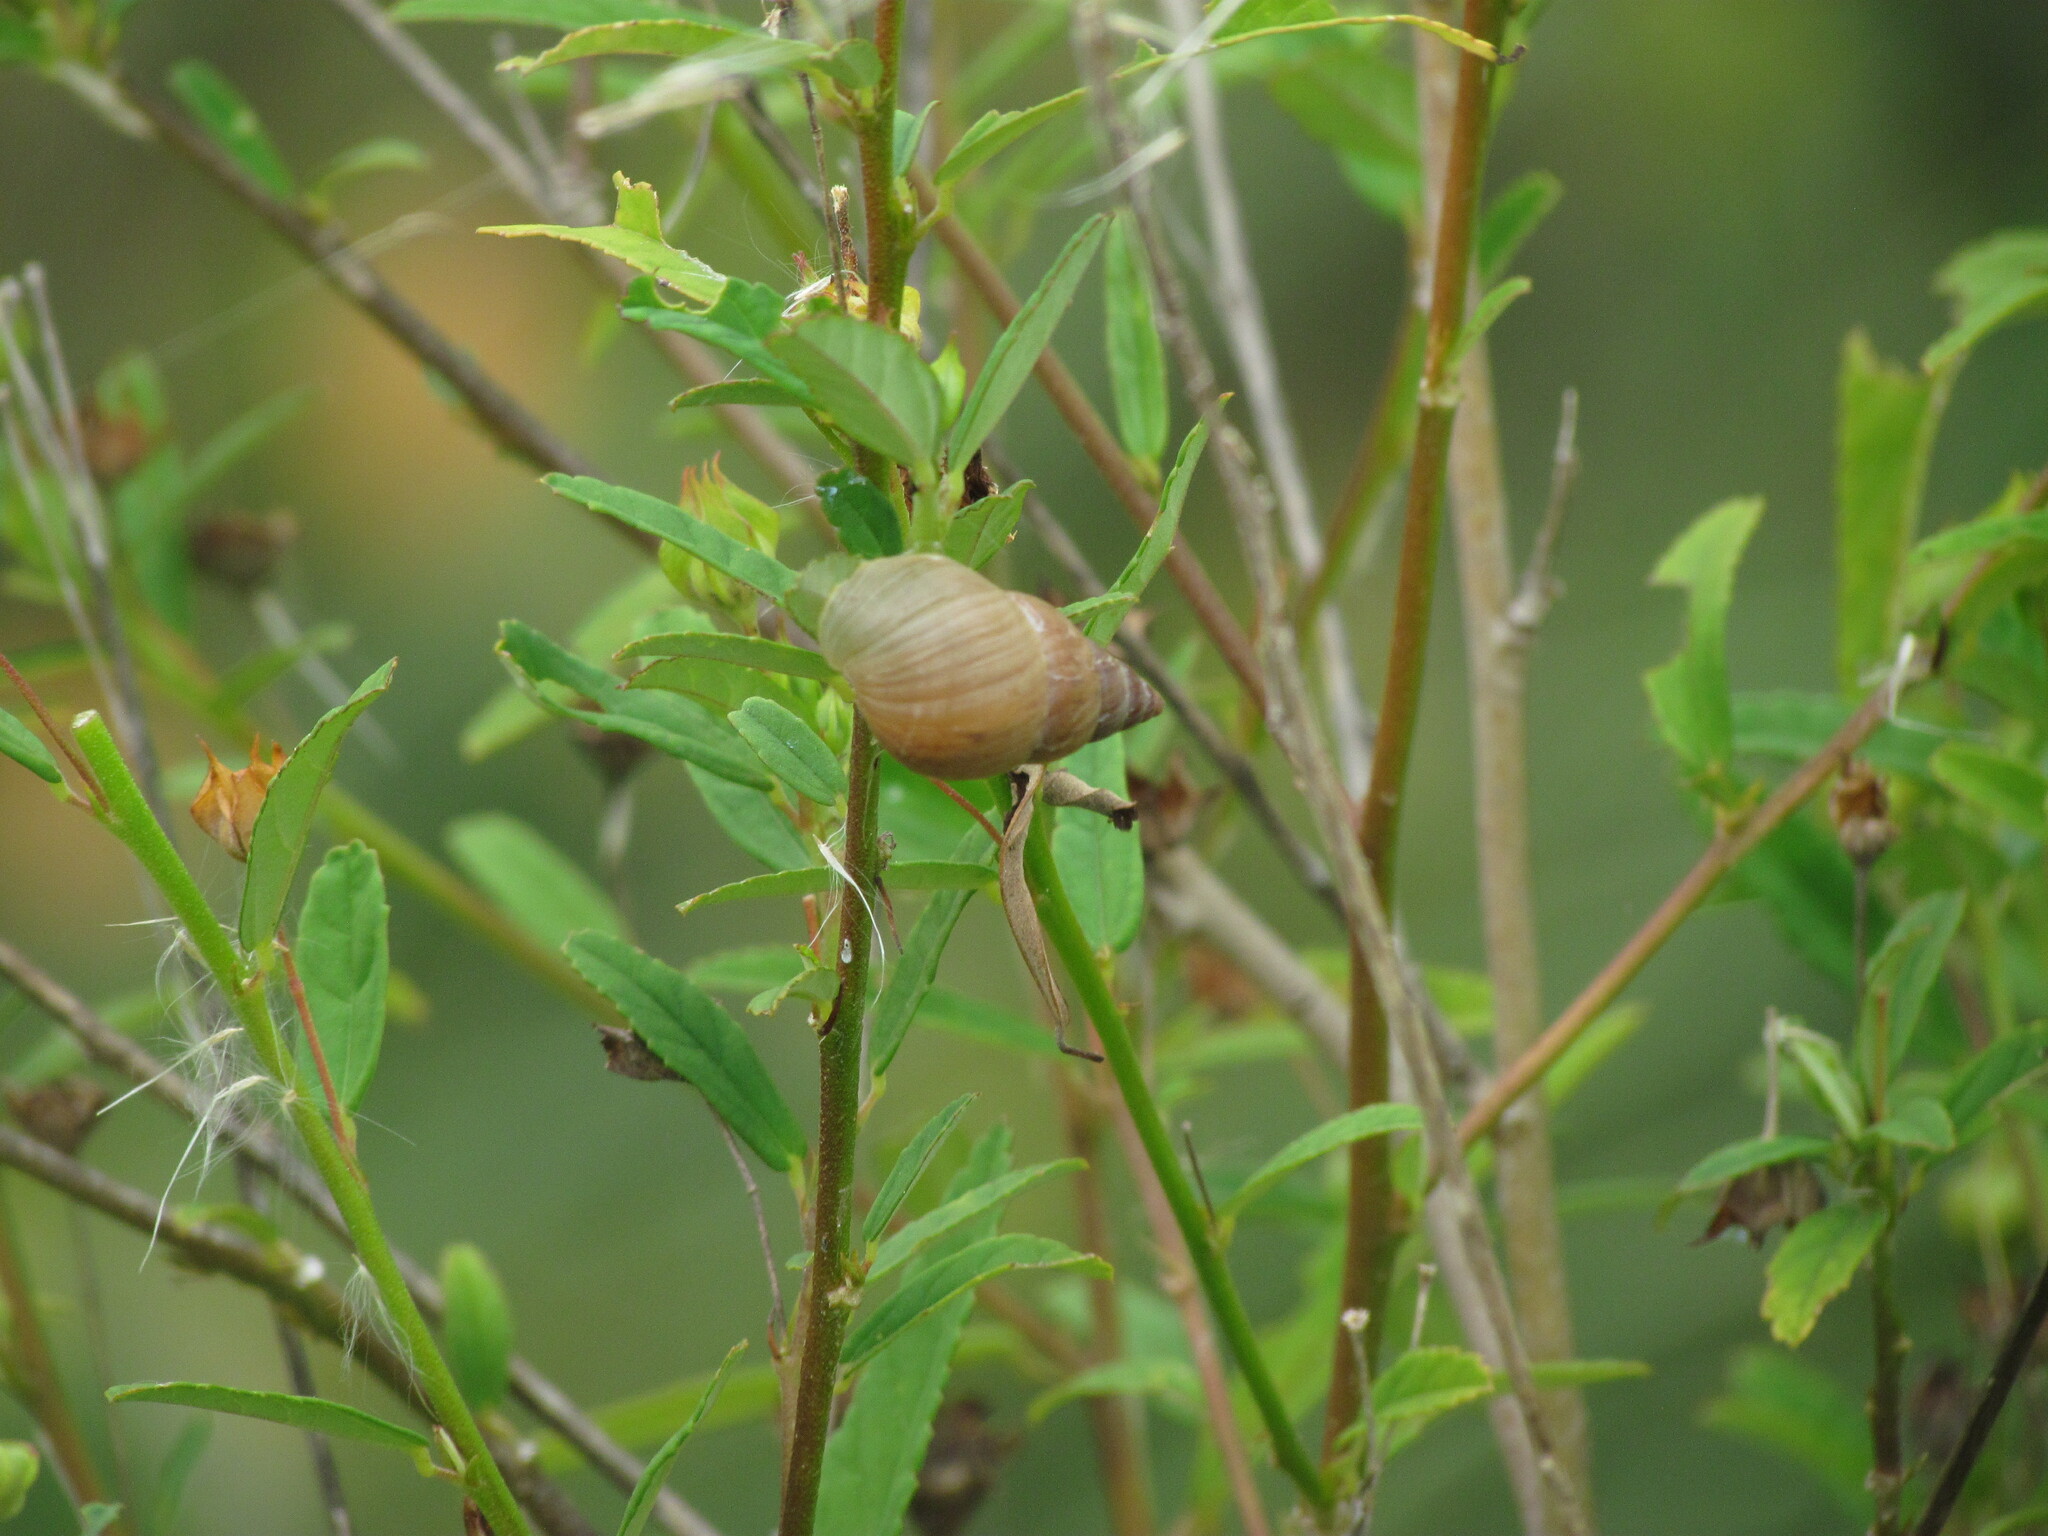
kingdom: Animalia
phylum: Mollusca
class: Gastropoda
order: Stylommatophora
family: Bulimulidae
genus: Bulimulus
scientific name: Bulimulus bonariensis
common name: Snail
